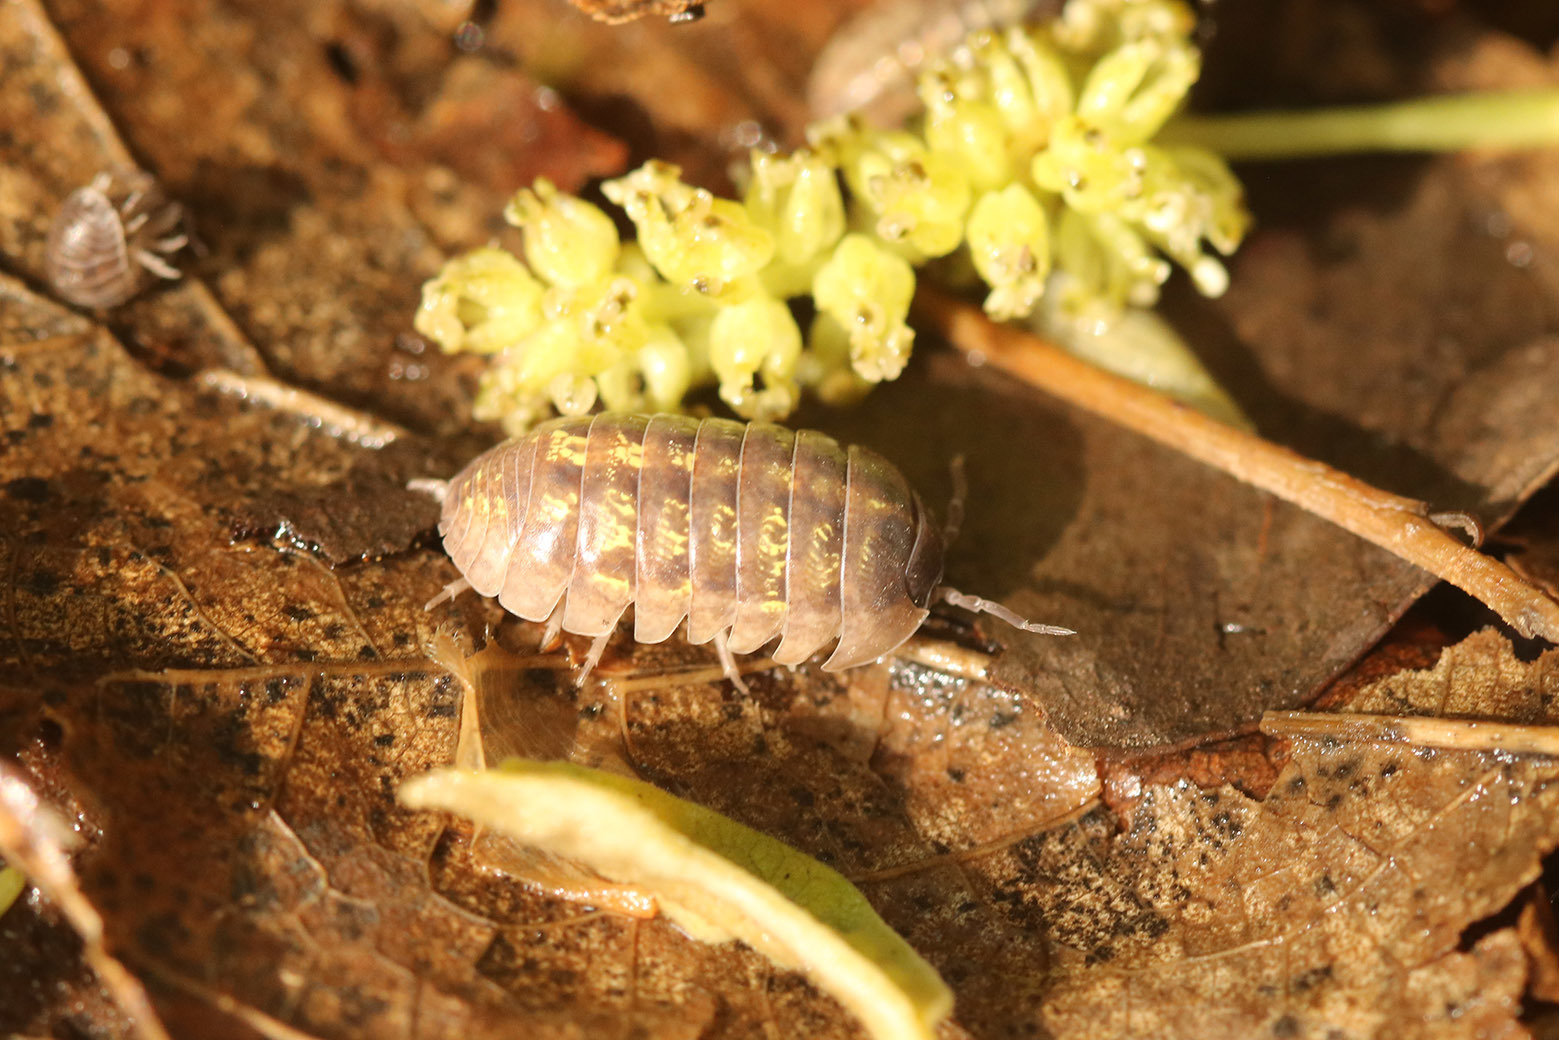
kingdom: Animalia
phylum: Arthropoda
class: Malacostraca
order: Isopoda
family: Armadillidiidae
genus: Armadillidium
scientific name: Armadillidium vulgare
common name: Common pill woodlouse
